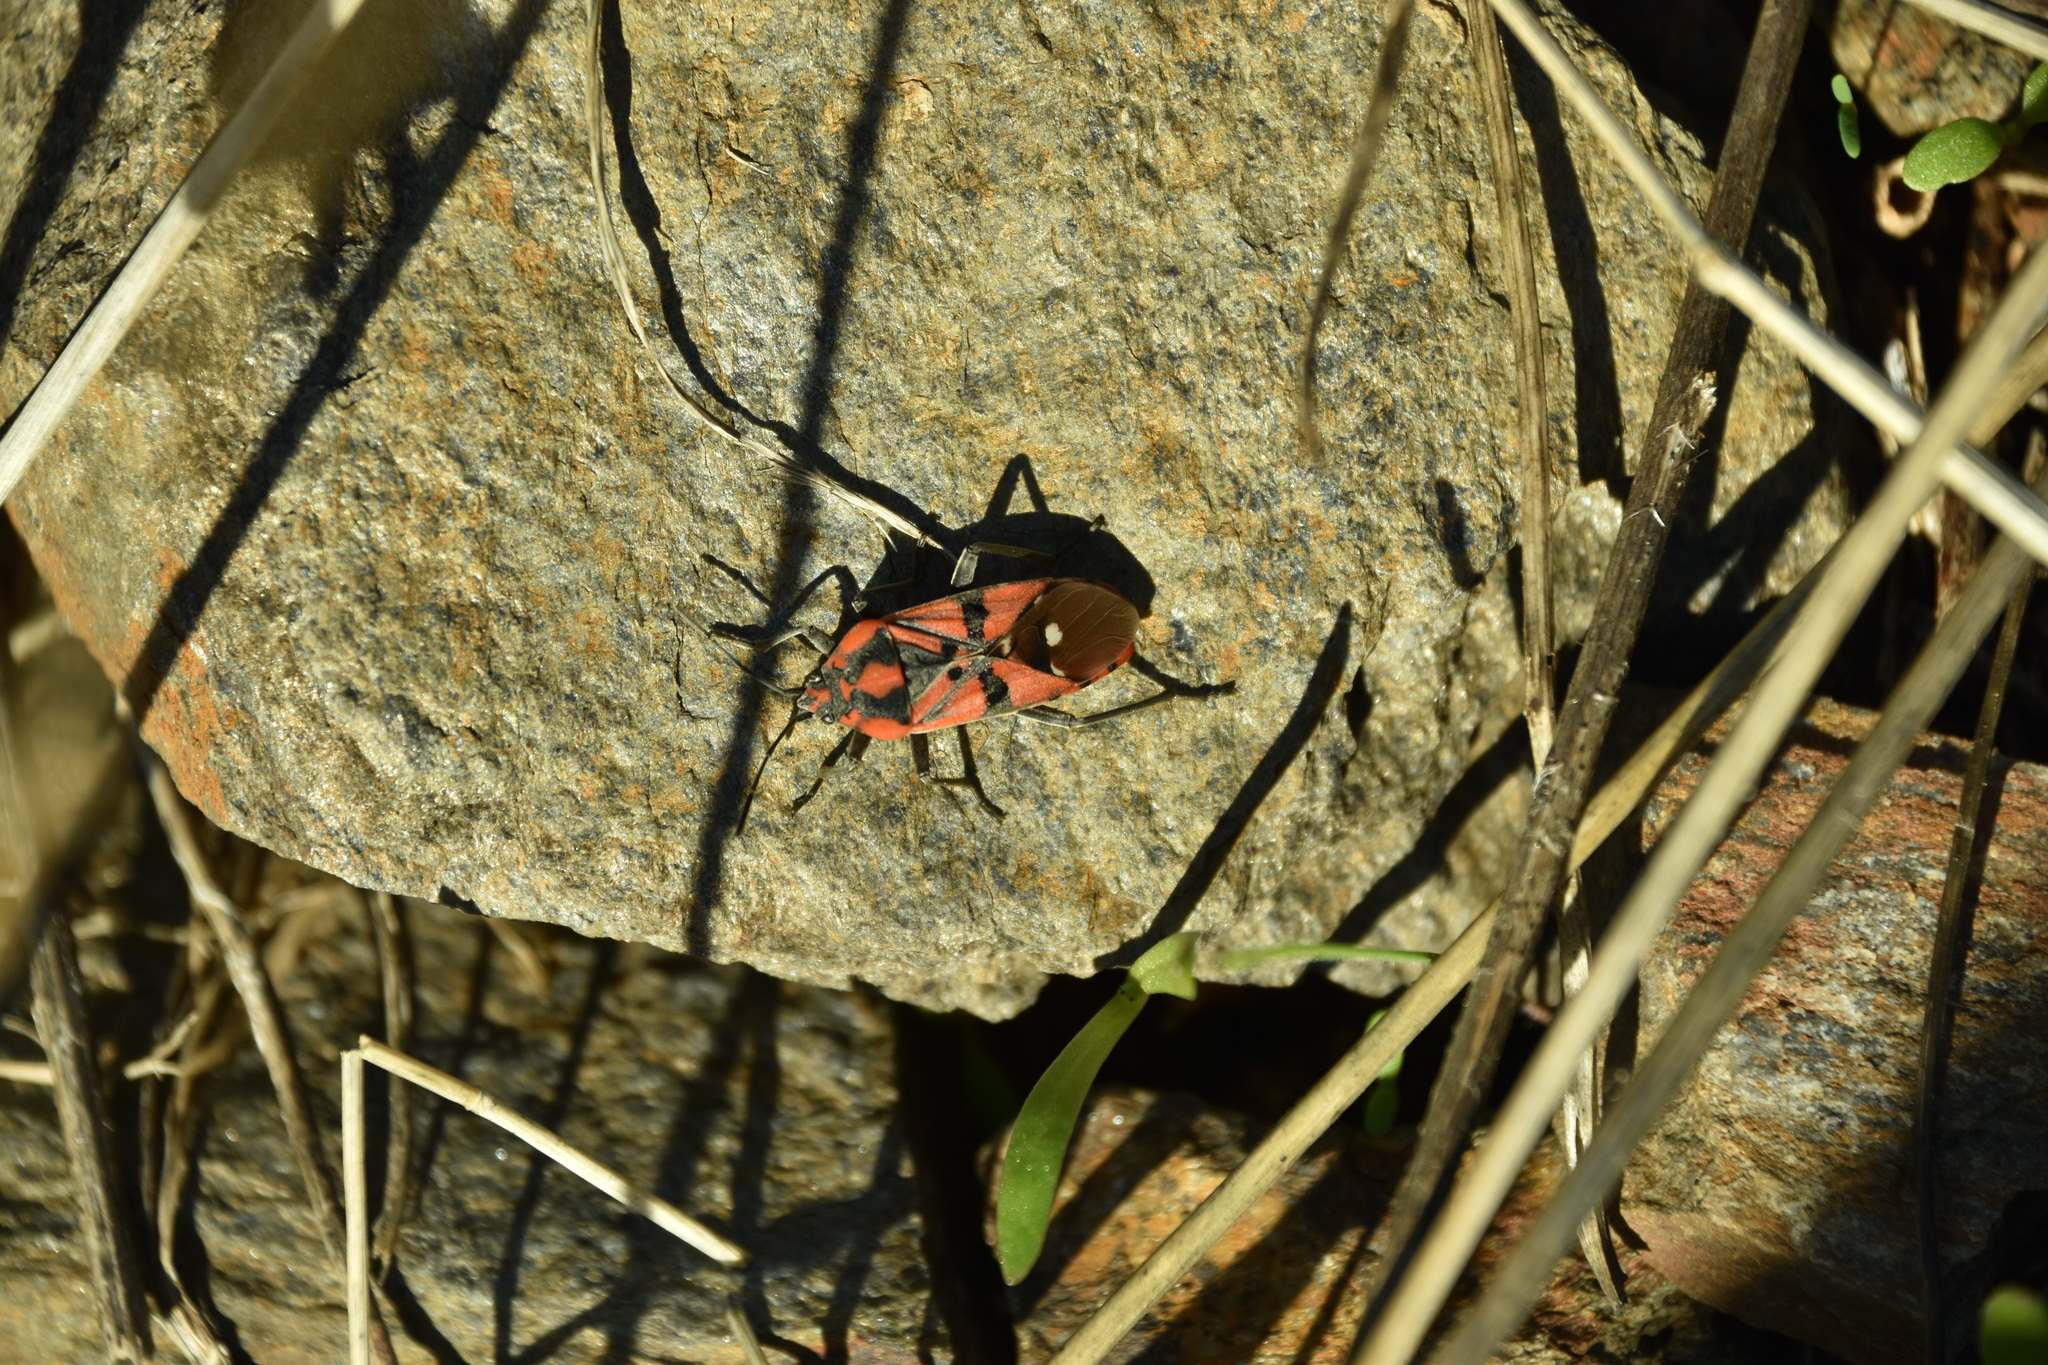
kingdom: Animalia
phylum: Arthropoda
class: Insecta
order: Hemiptera
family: Lygaeidae
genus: Spilostethus
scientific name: Spilostethus pandurus
